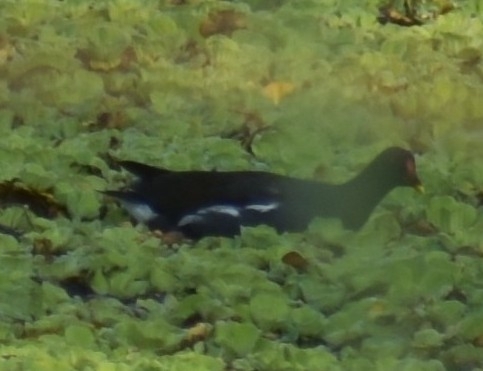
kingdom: Animalia
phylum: Chordata
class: Aves
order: Gruiformes
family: Rallidae
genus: Gallinula
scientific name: Gallinula chloropus
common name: Common moorhen
